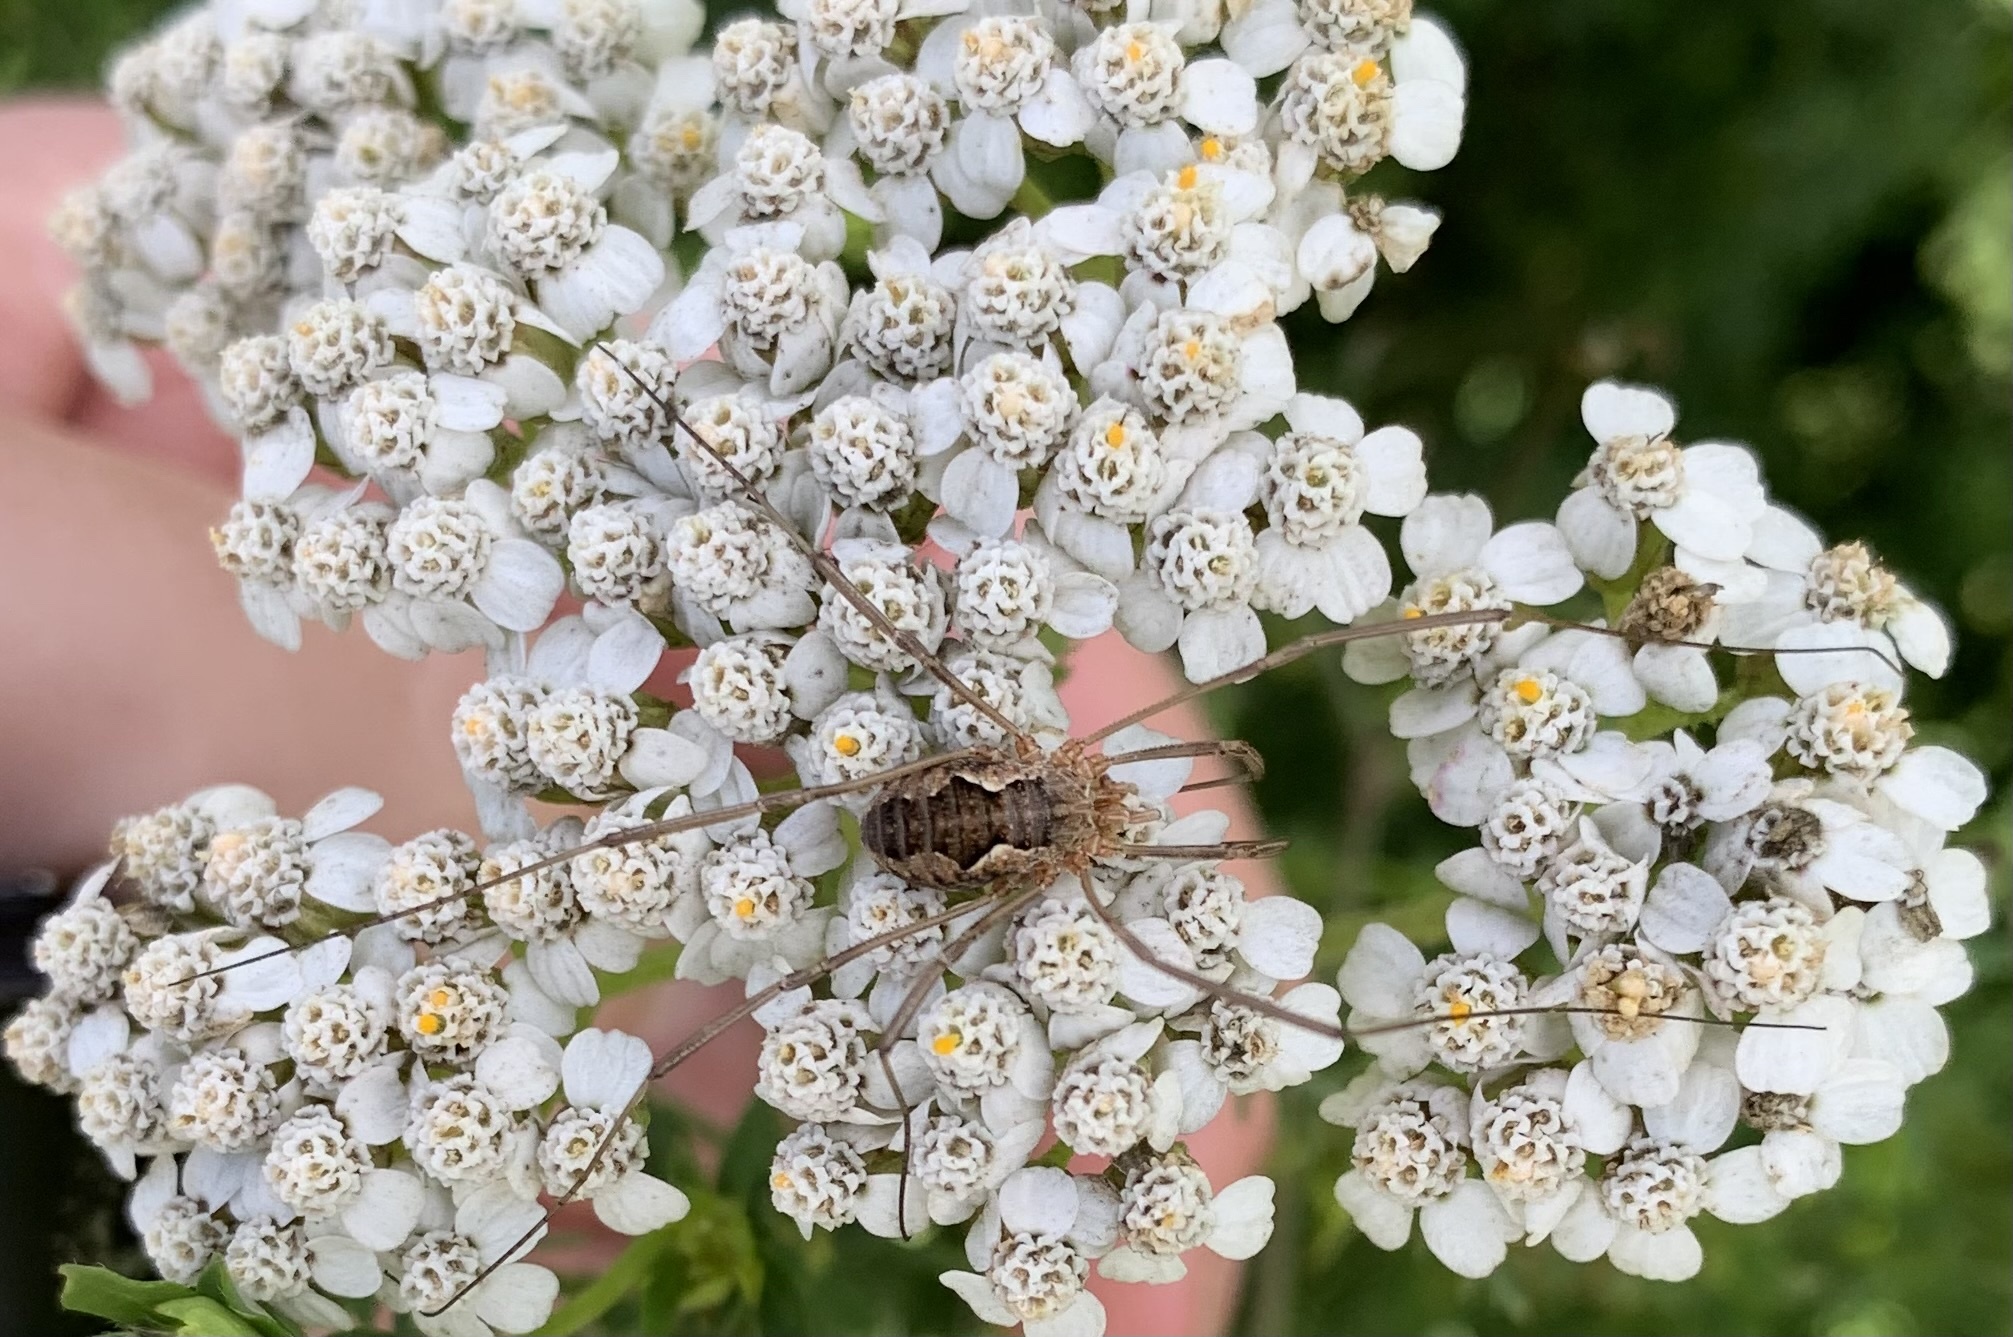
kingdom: Animalia
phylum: Arthropoda
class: Arachnida
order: Opiliones
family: Phalangiidae
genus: Phalangium
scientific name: Phalangium opilio
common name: Daddy longleg
